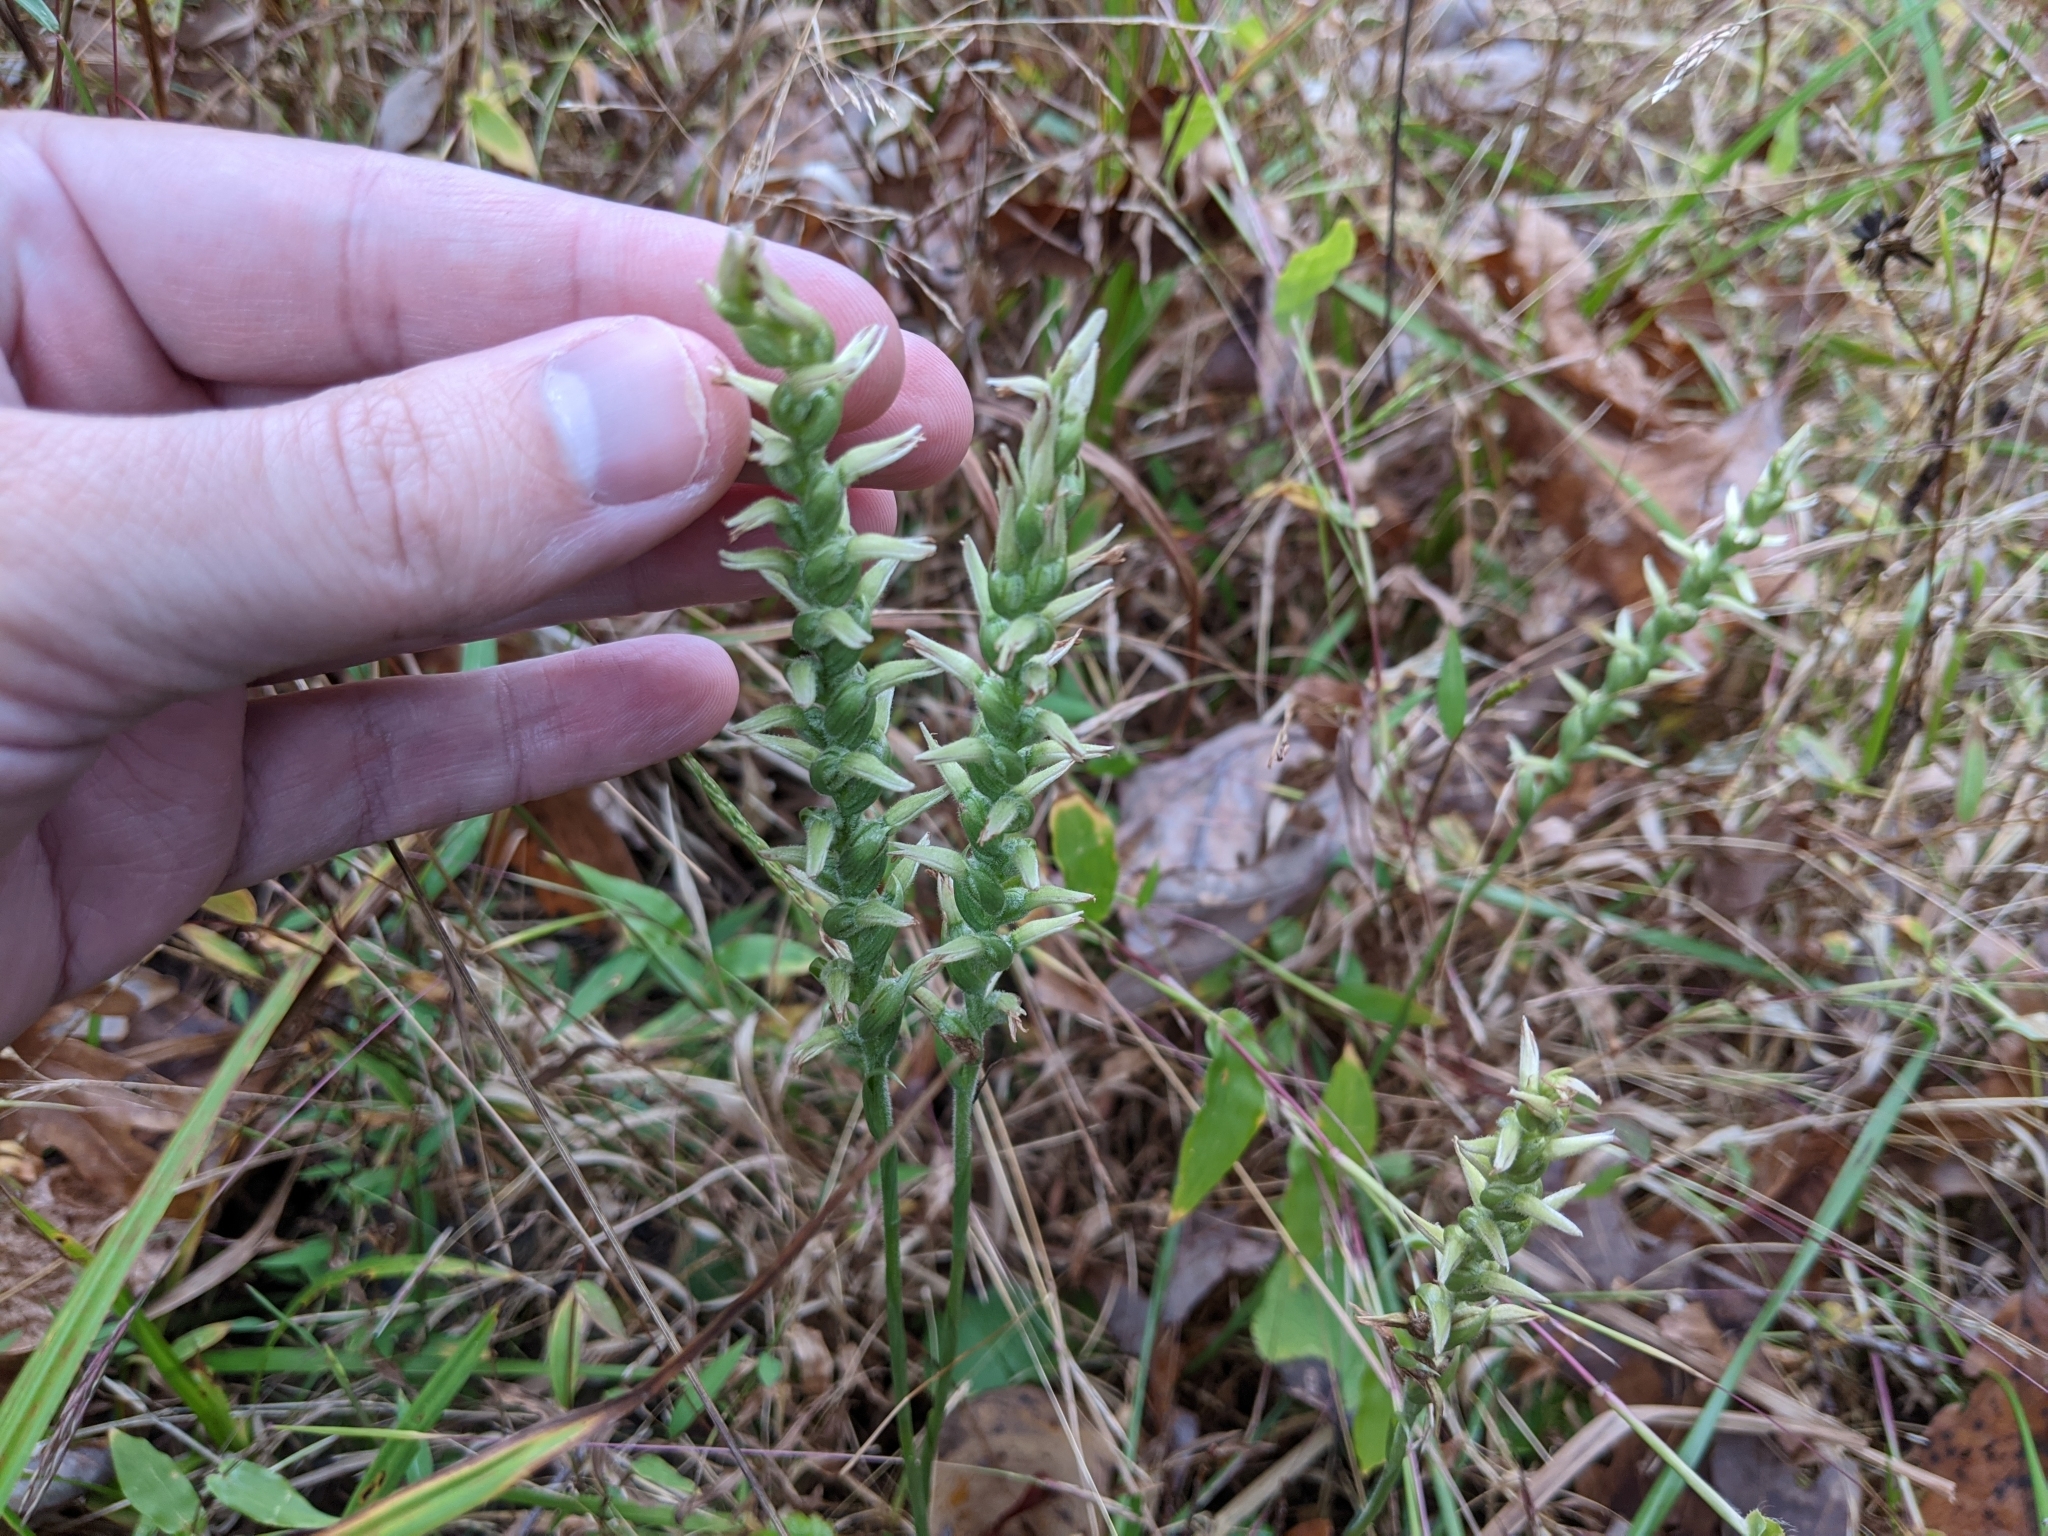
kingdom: Plantae
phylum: Tracheophyta
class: Liliopsida
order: Asparagales
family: Orchidaceae
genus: Spiranthes
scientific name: Spiranthes cernua
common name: Dropping ladies'-tresses
